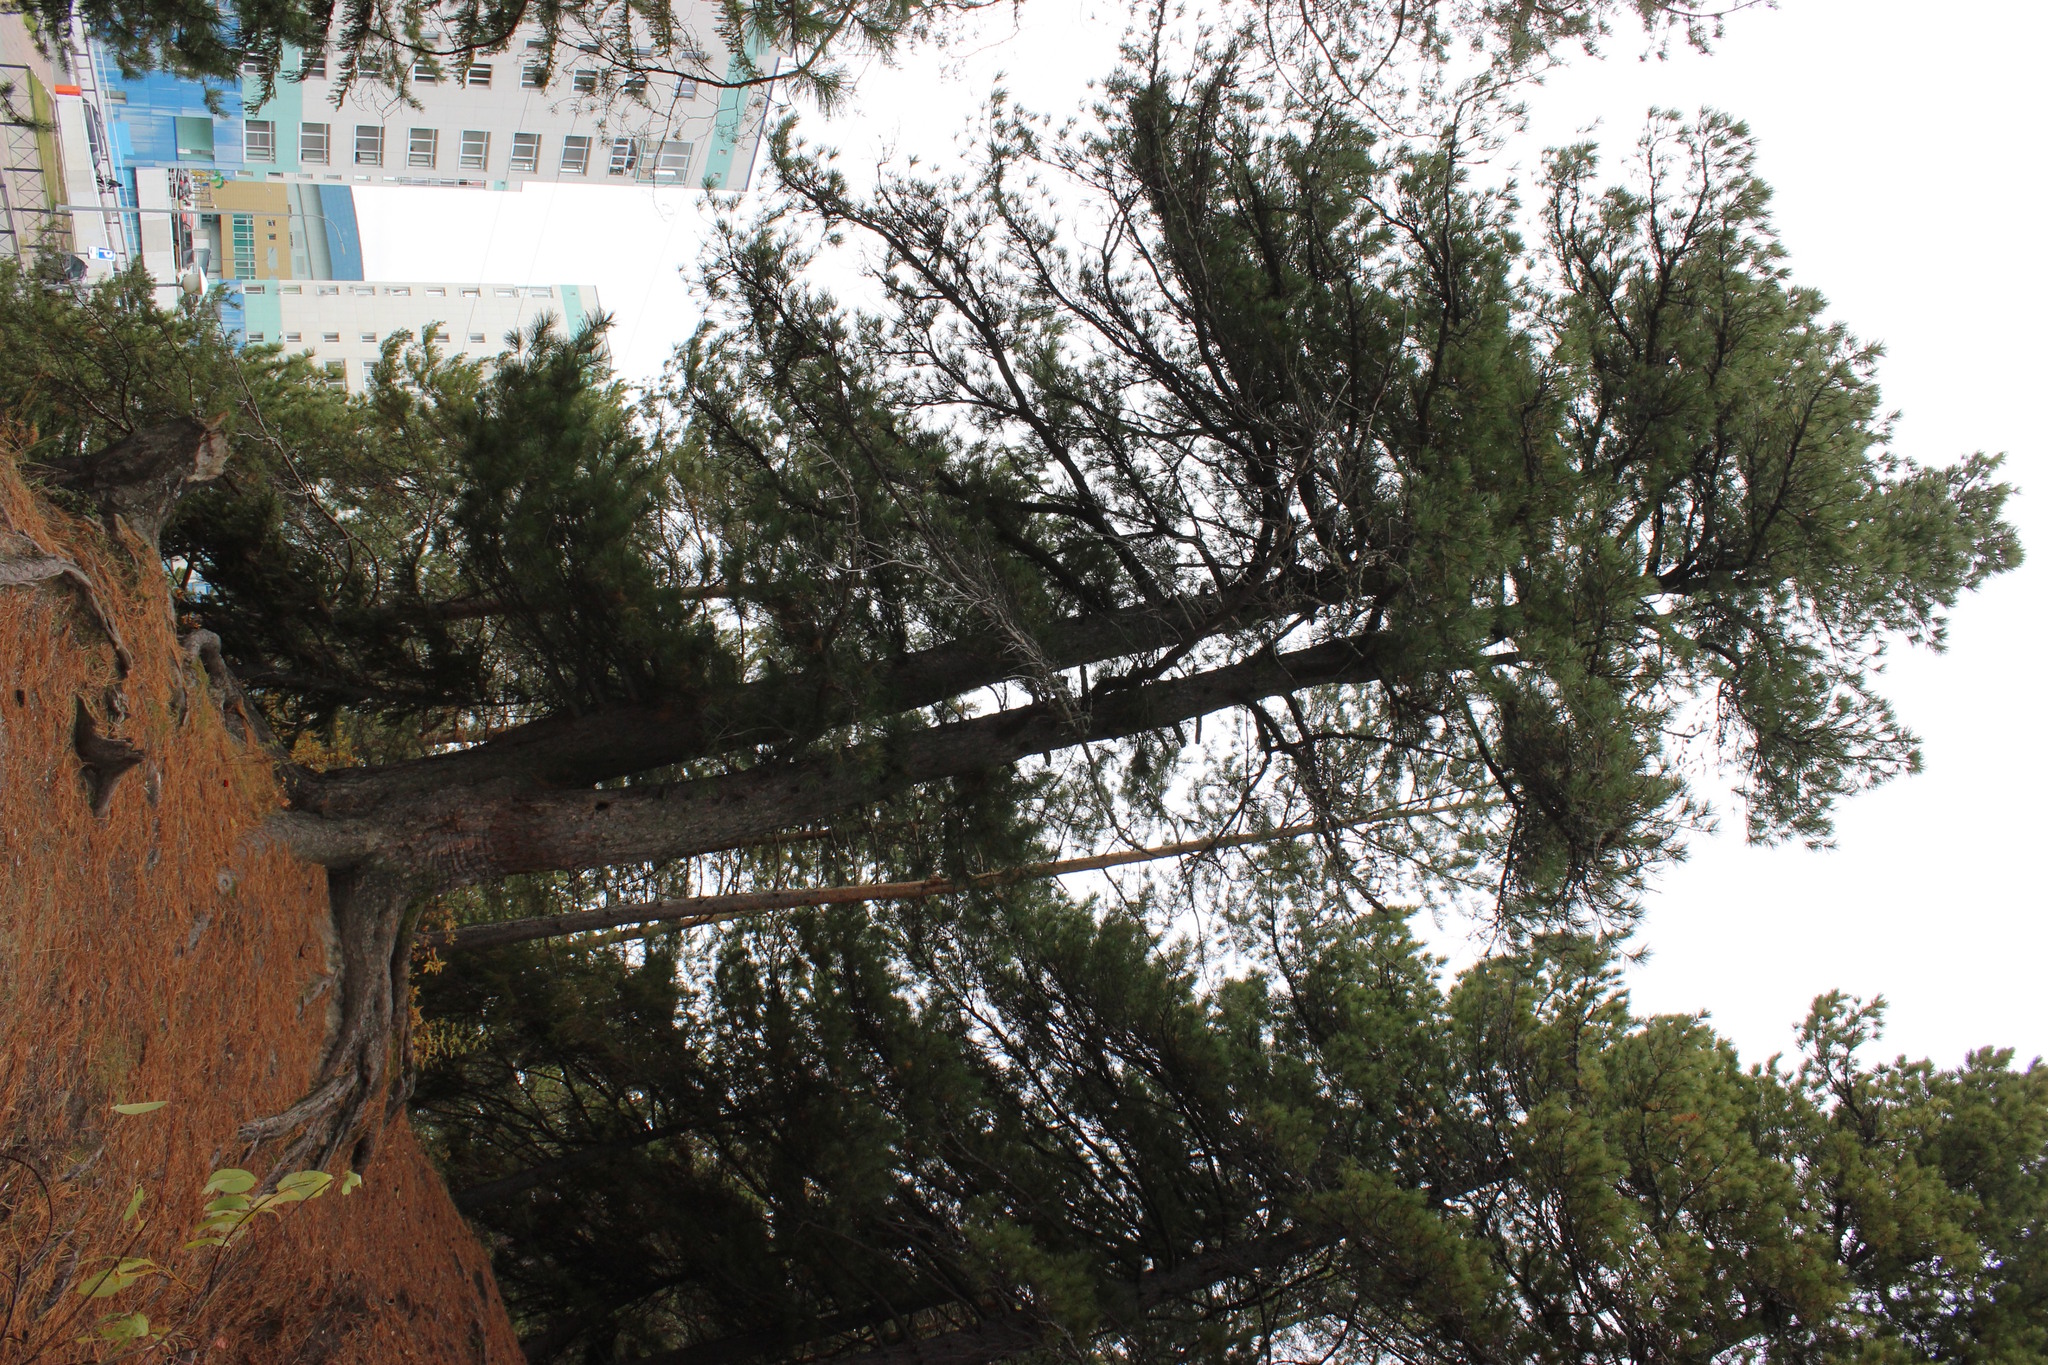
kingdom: Plantae
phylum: Tracheophyta
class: Pinopsida
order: Pinales
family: Pinaceae
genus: Pinus
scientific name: Pinus sibirica
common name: Siberian pine
